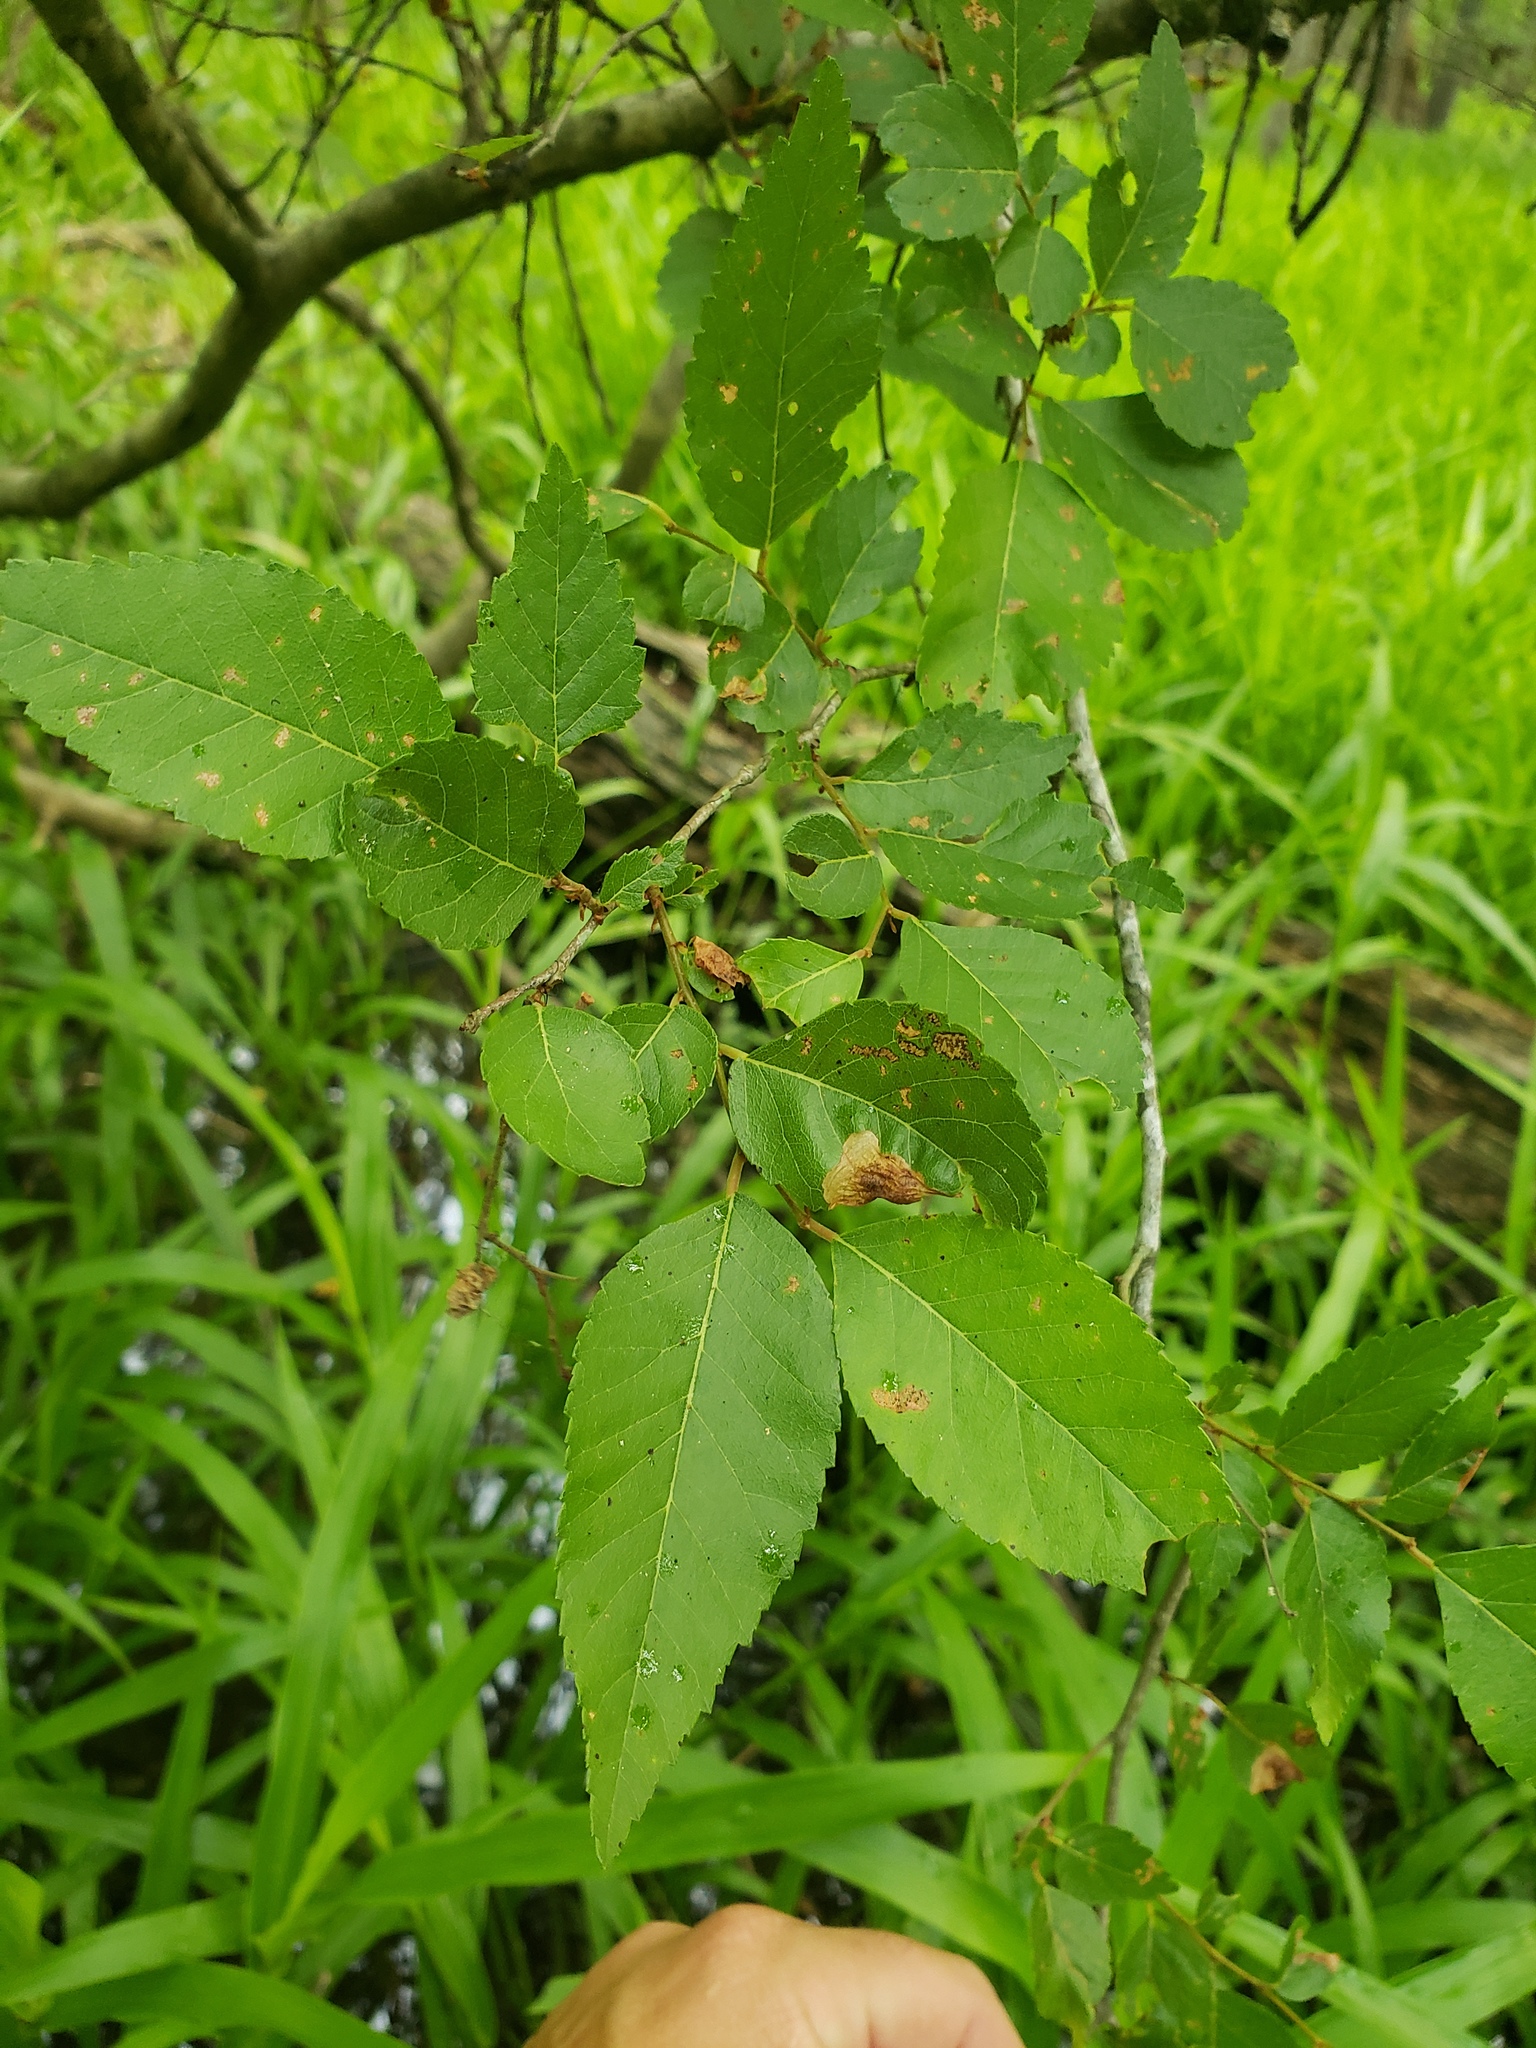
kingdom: Plantae
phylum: Tracheophyta
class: Magnoliopsida
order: Rosales
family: Ulmaceae
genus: Planera
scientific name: Planera aquatica
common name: Water-elm
